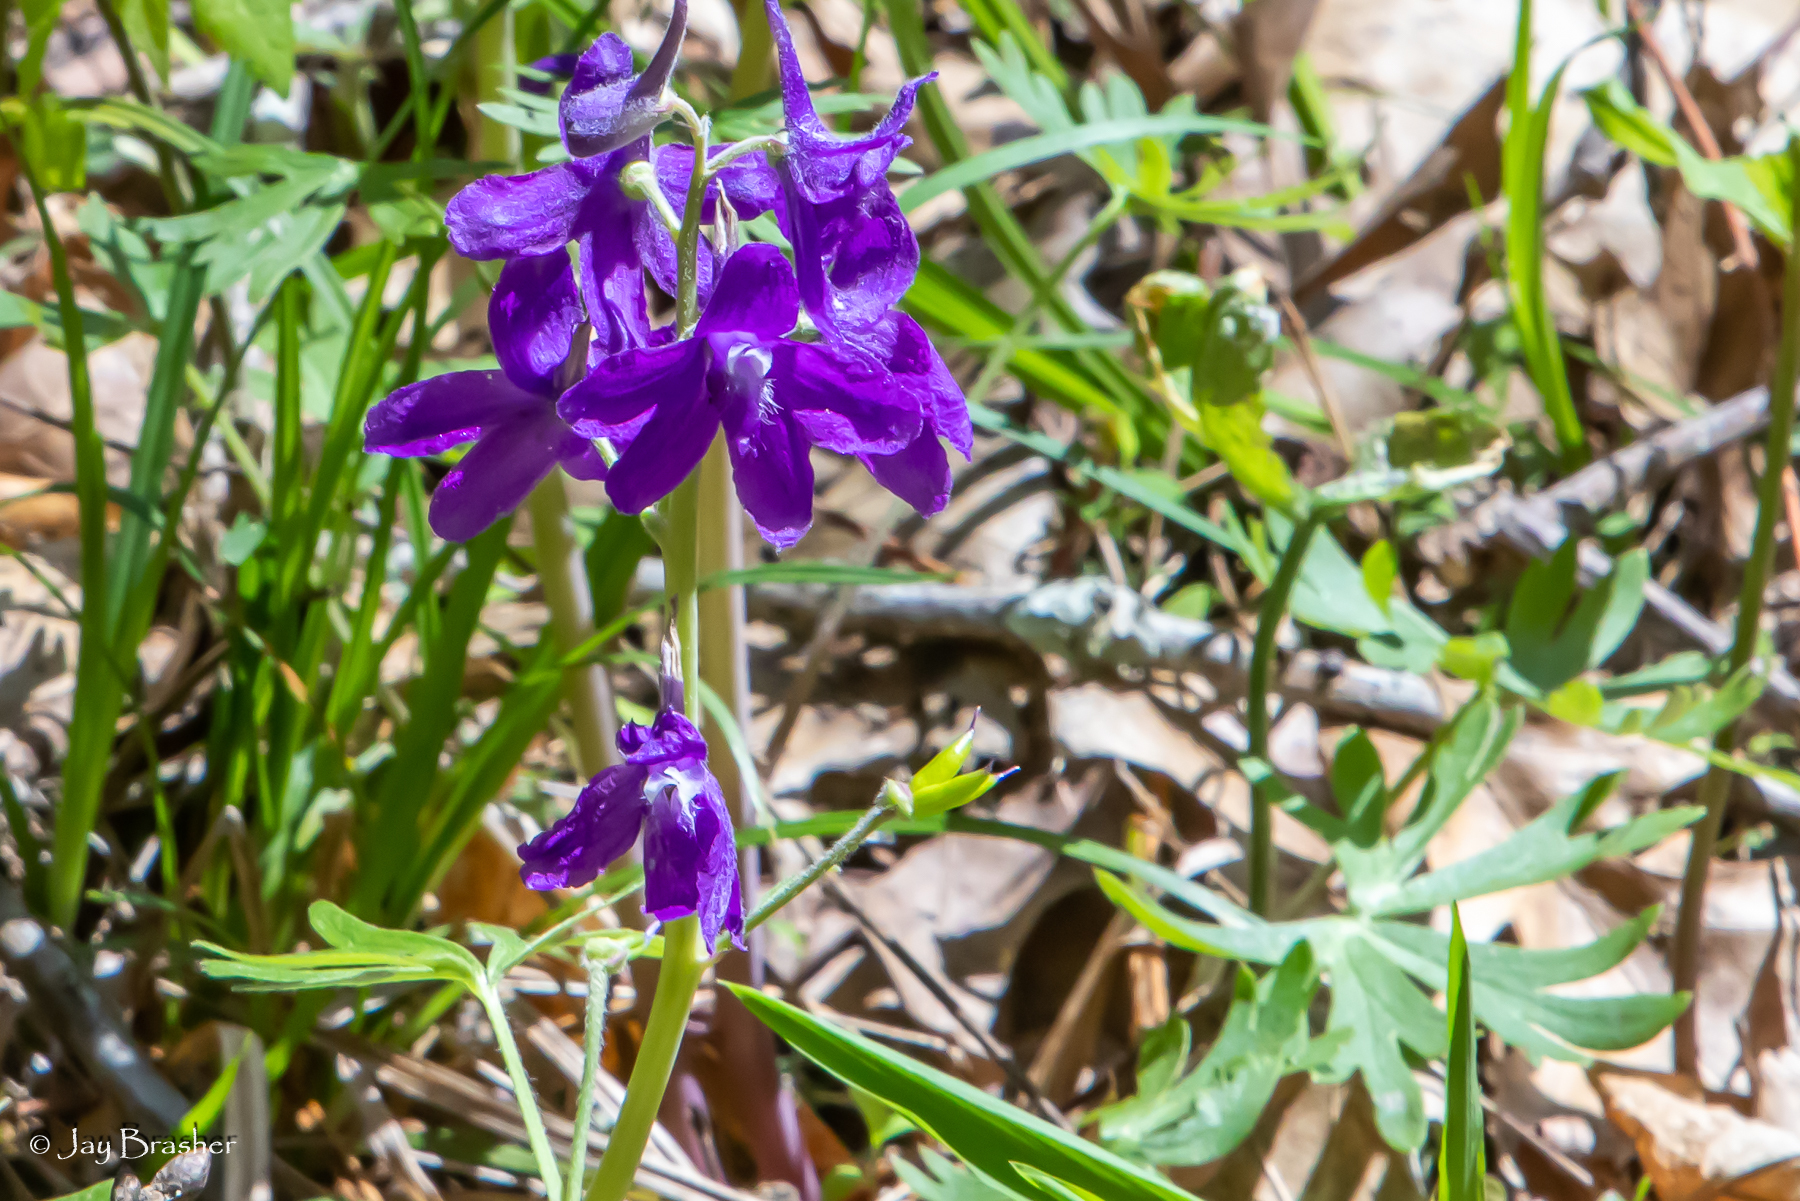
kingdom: Plantae
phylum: Tracheophyta
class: Magnoliopsida
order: Ranunculales
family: Ranunculaceae
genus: Delphinium
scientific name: Delphinium tricorne
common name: Dwarf larkspur
